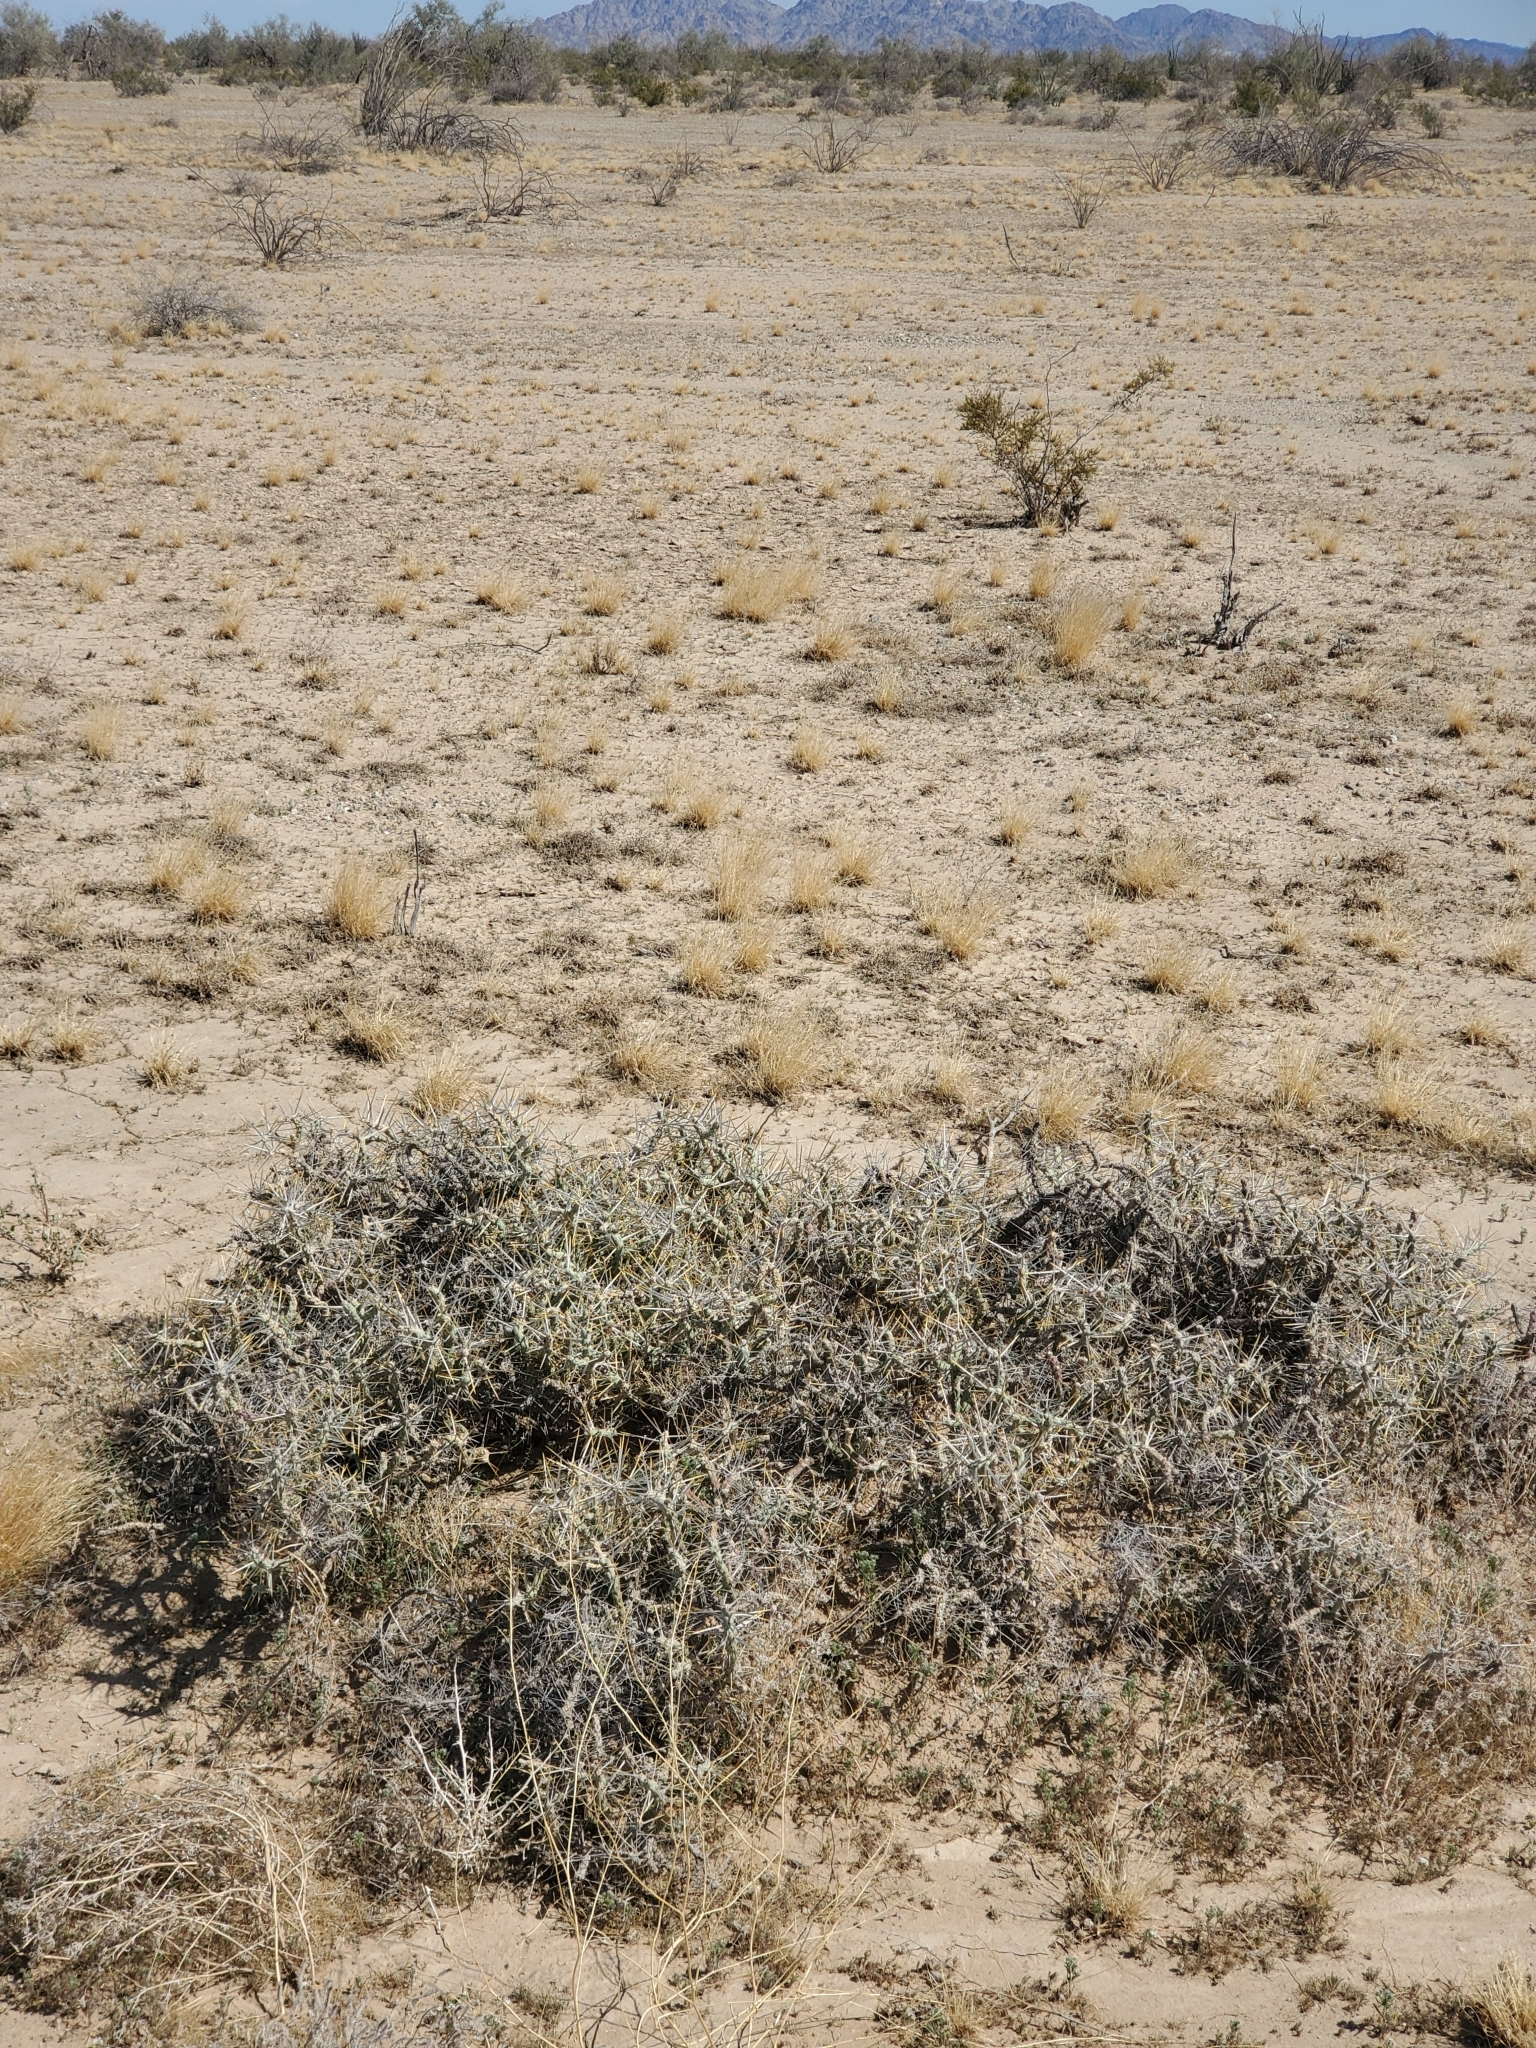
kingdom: Plantae
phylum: Tracheophyta
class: Magnoliopsida
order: Caryophyllales
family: Cactaceae
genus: Cylindropuntia
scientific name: Cylindropuntia ramosissima
